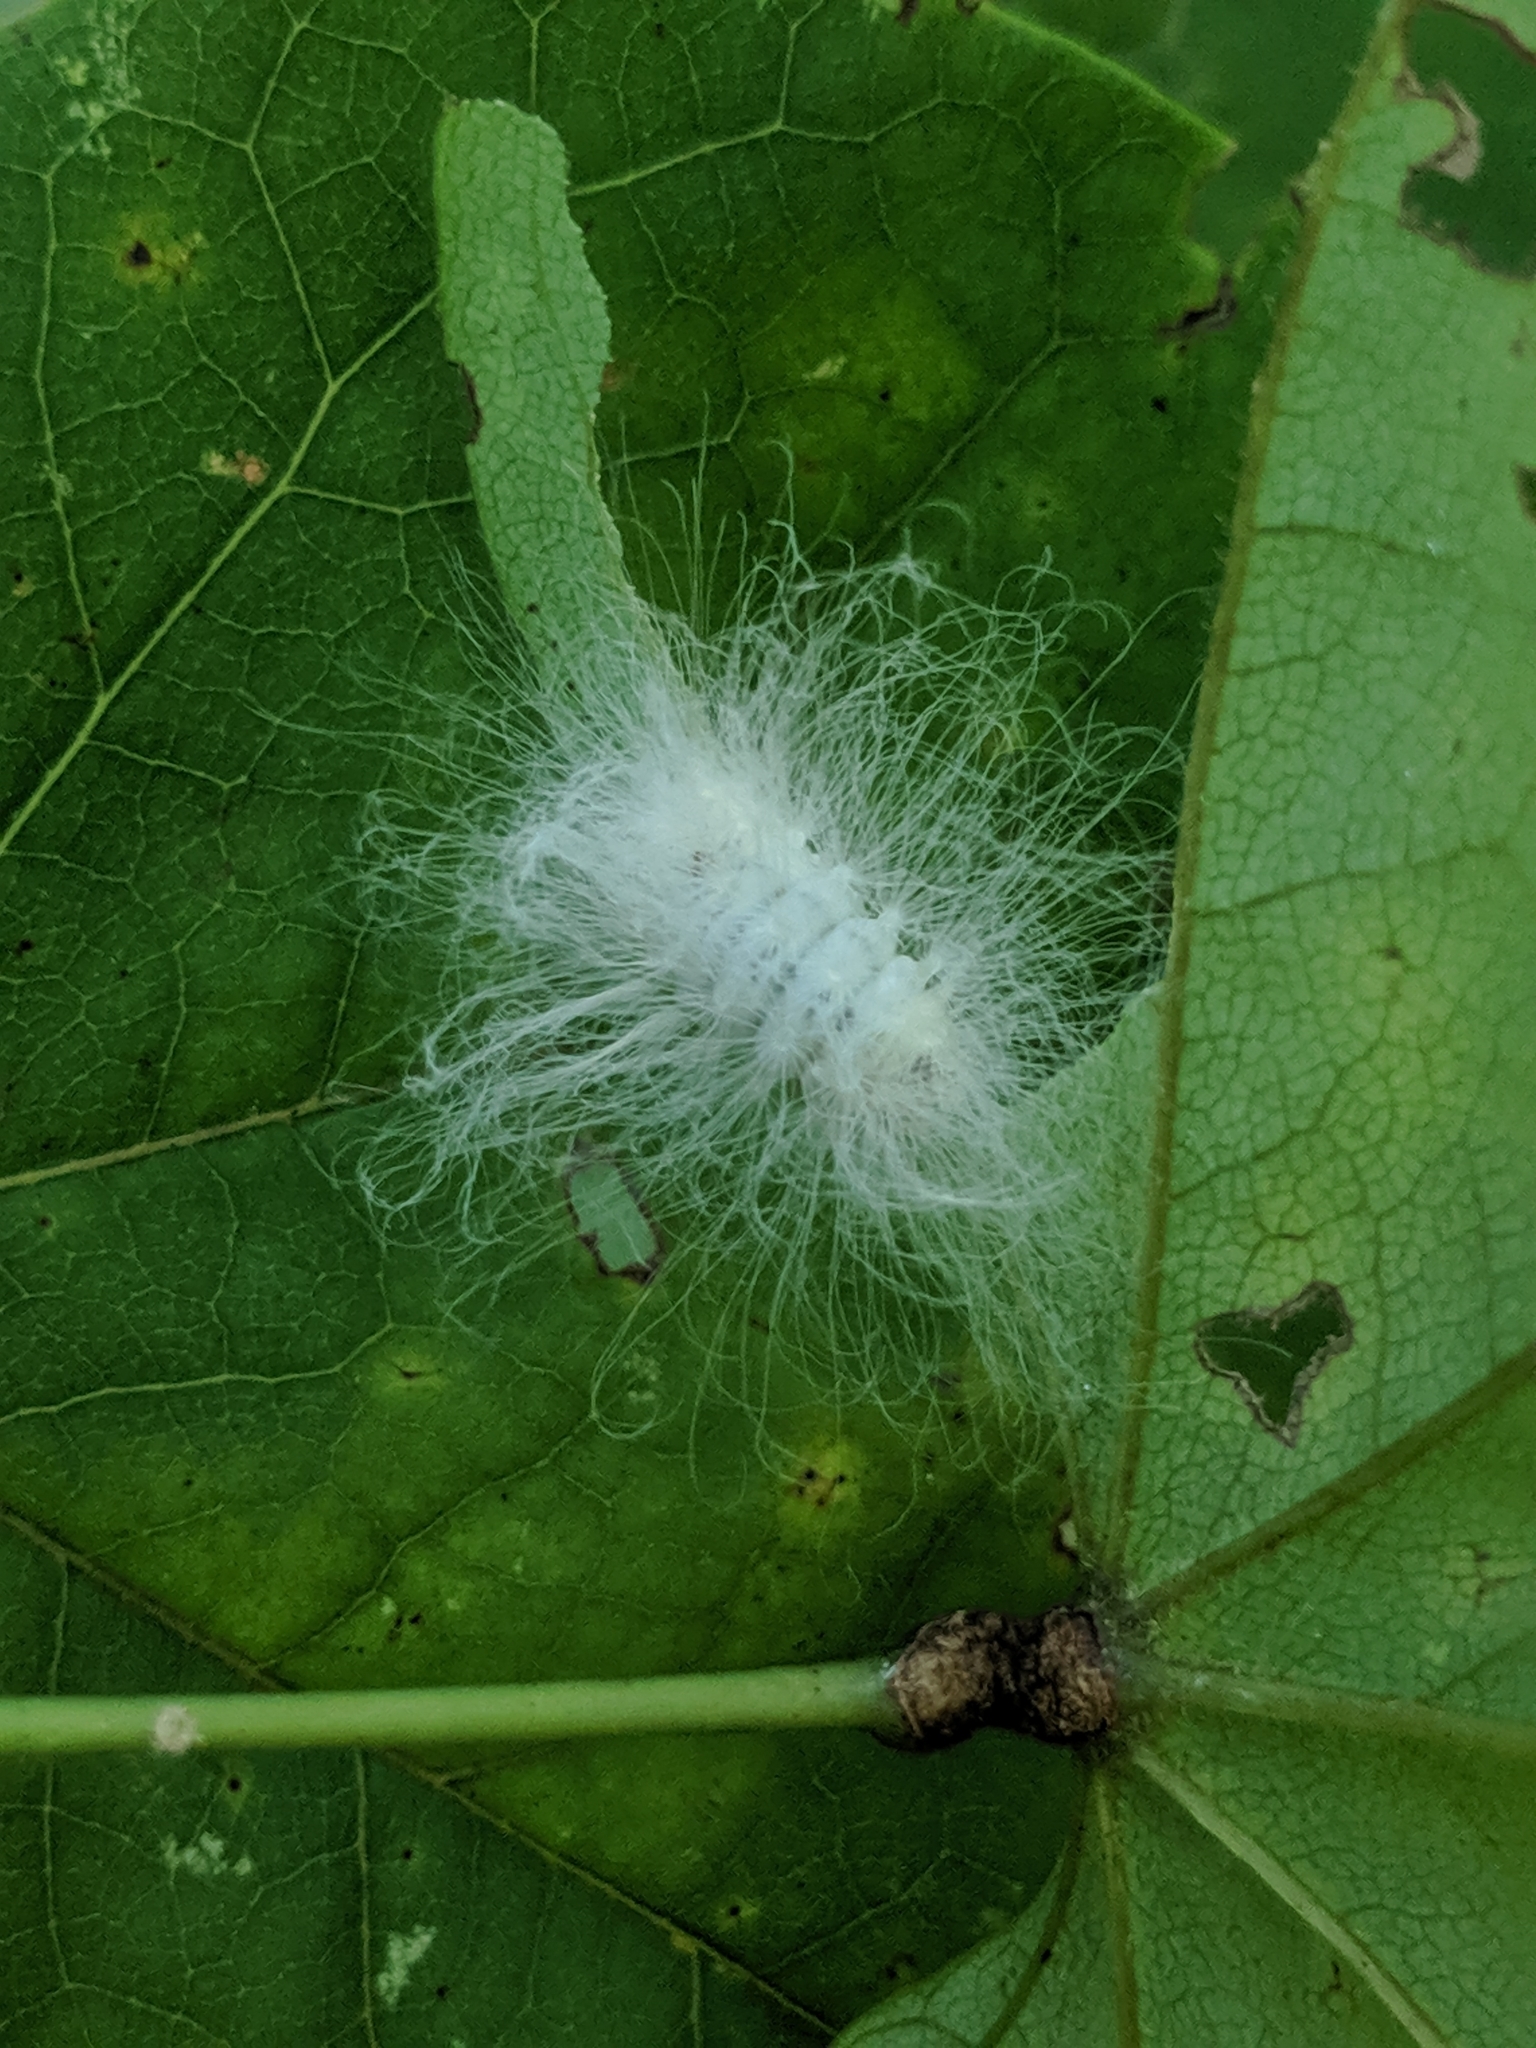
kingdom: Animalia
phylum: Arthropoda
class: Insecta
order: Lepidoptera
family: Megalopygidae
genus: Megalopyge
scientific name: Megalopyge crispata
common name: Black-waved flannel moth
